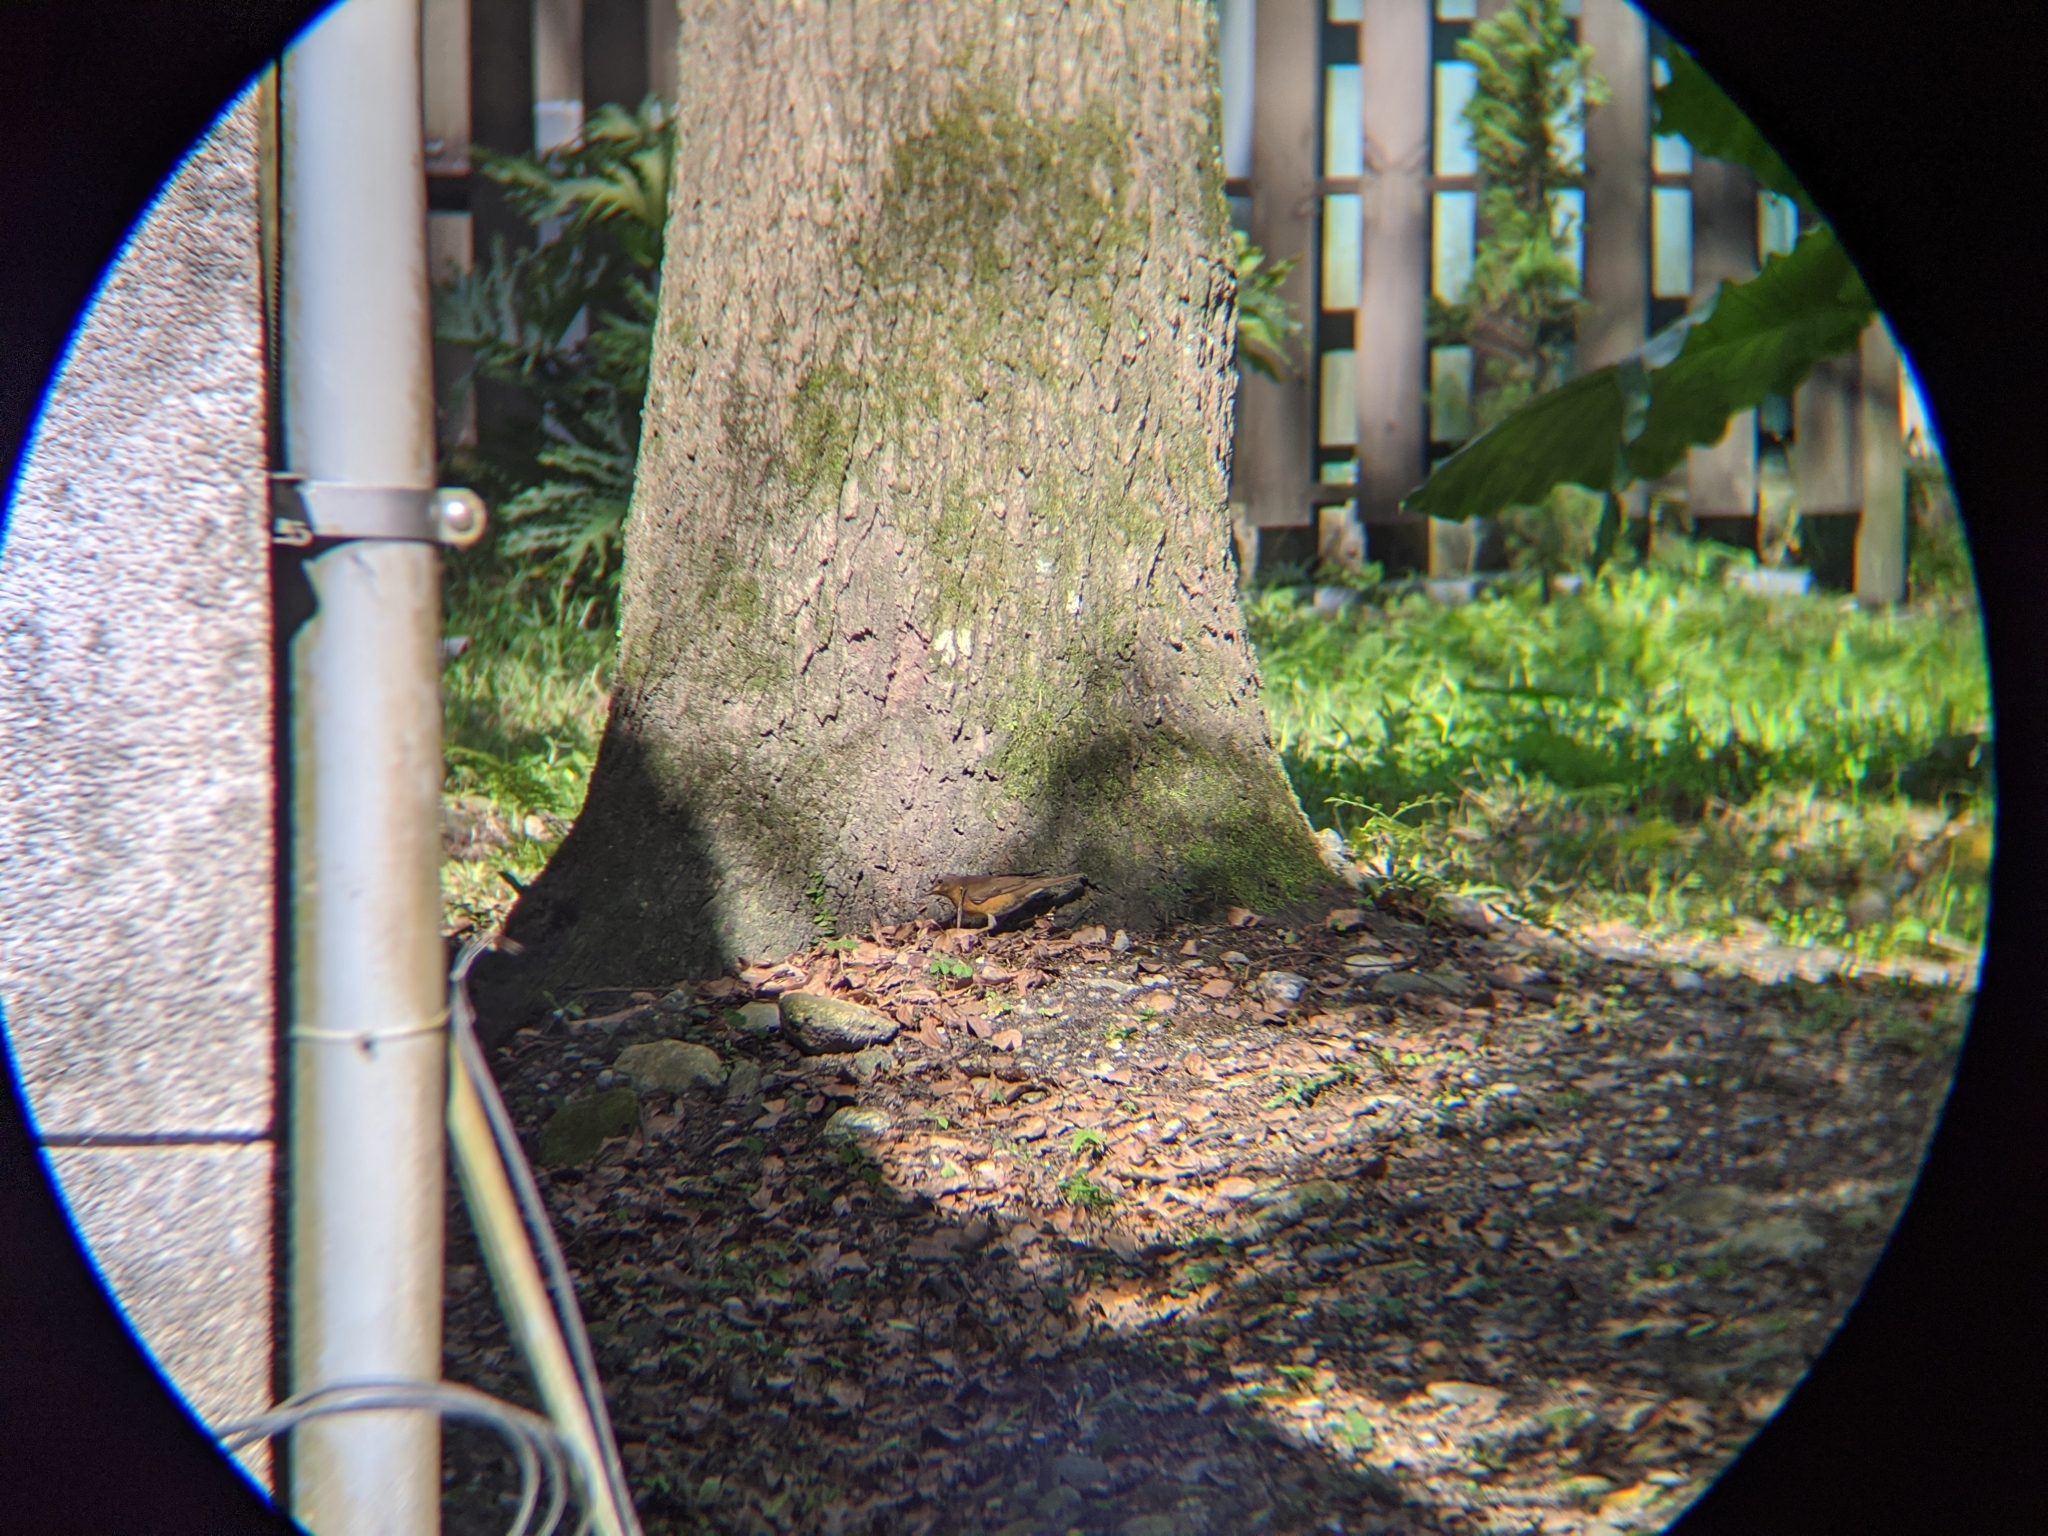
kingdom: Animalia
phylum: Chordata
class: Aves
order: Passeriformes
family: Turdidae
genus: Turdus
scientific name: Turdus chrysolaus
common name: Brown-headed thrush
